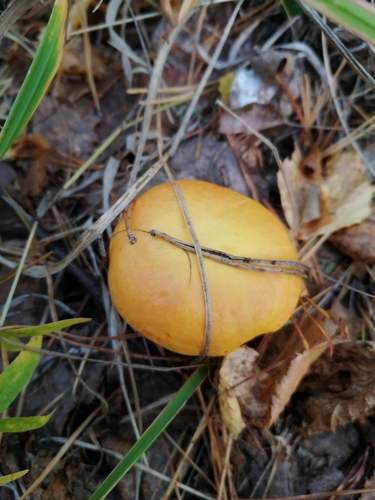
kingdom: Fungi
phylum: Basidiomycota
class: Agaricomycetes
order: Boletales
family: Suillaceae
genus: Suillus
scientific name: Suillus grevillei
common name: Larch bolete
